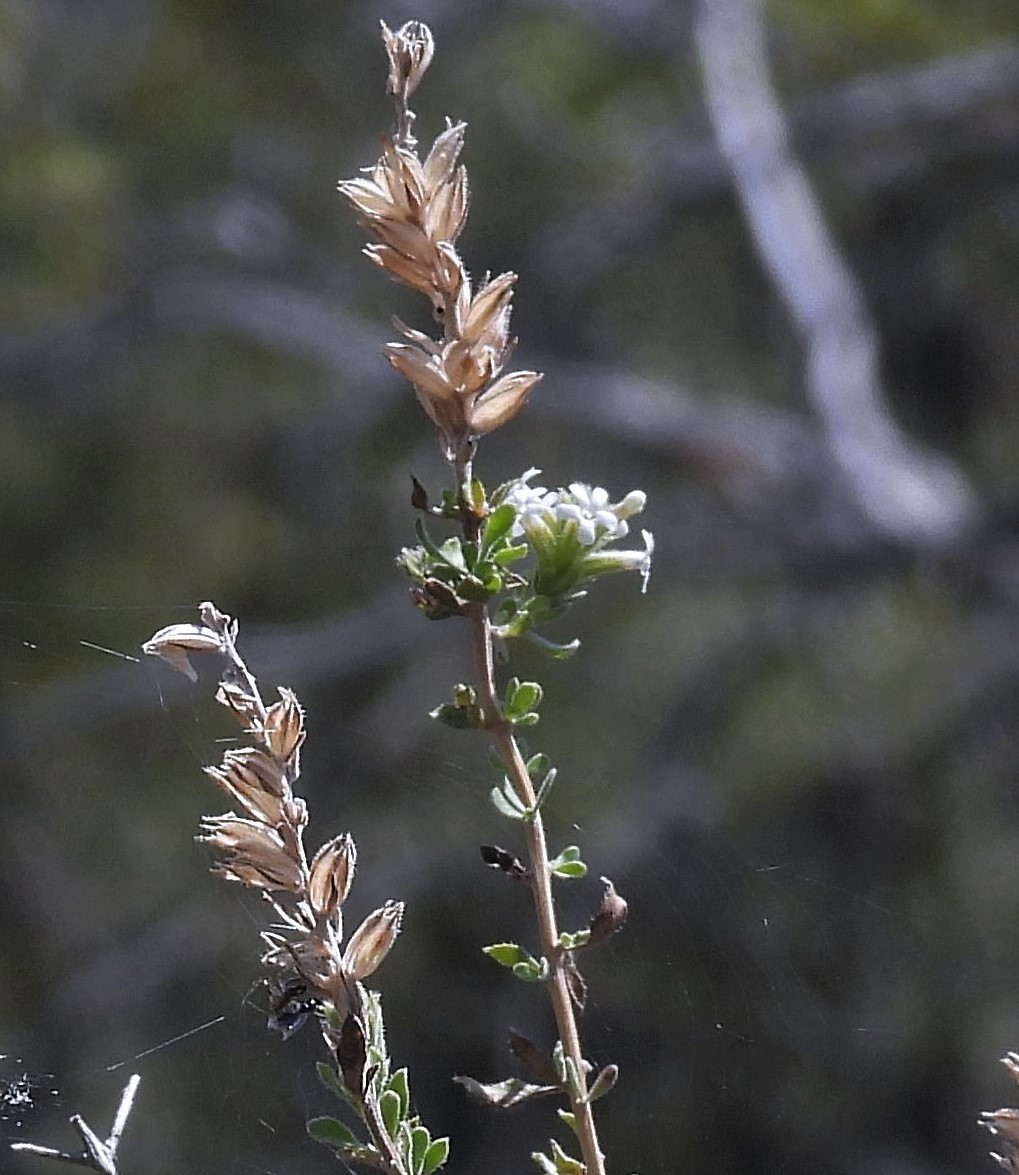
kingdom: Plantae
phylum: Tracheophyta
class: Magnoliopsida
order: Lamiales
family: Verbenaceae
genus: Mulguraea
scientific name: Mulguraea aspera
